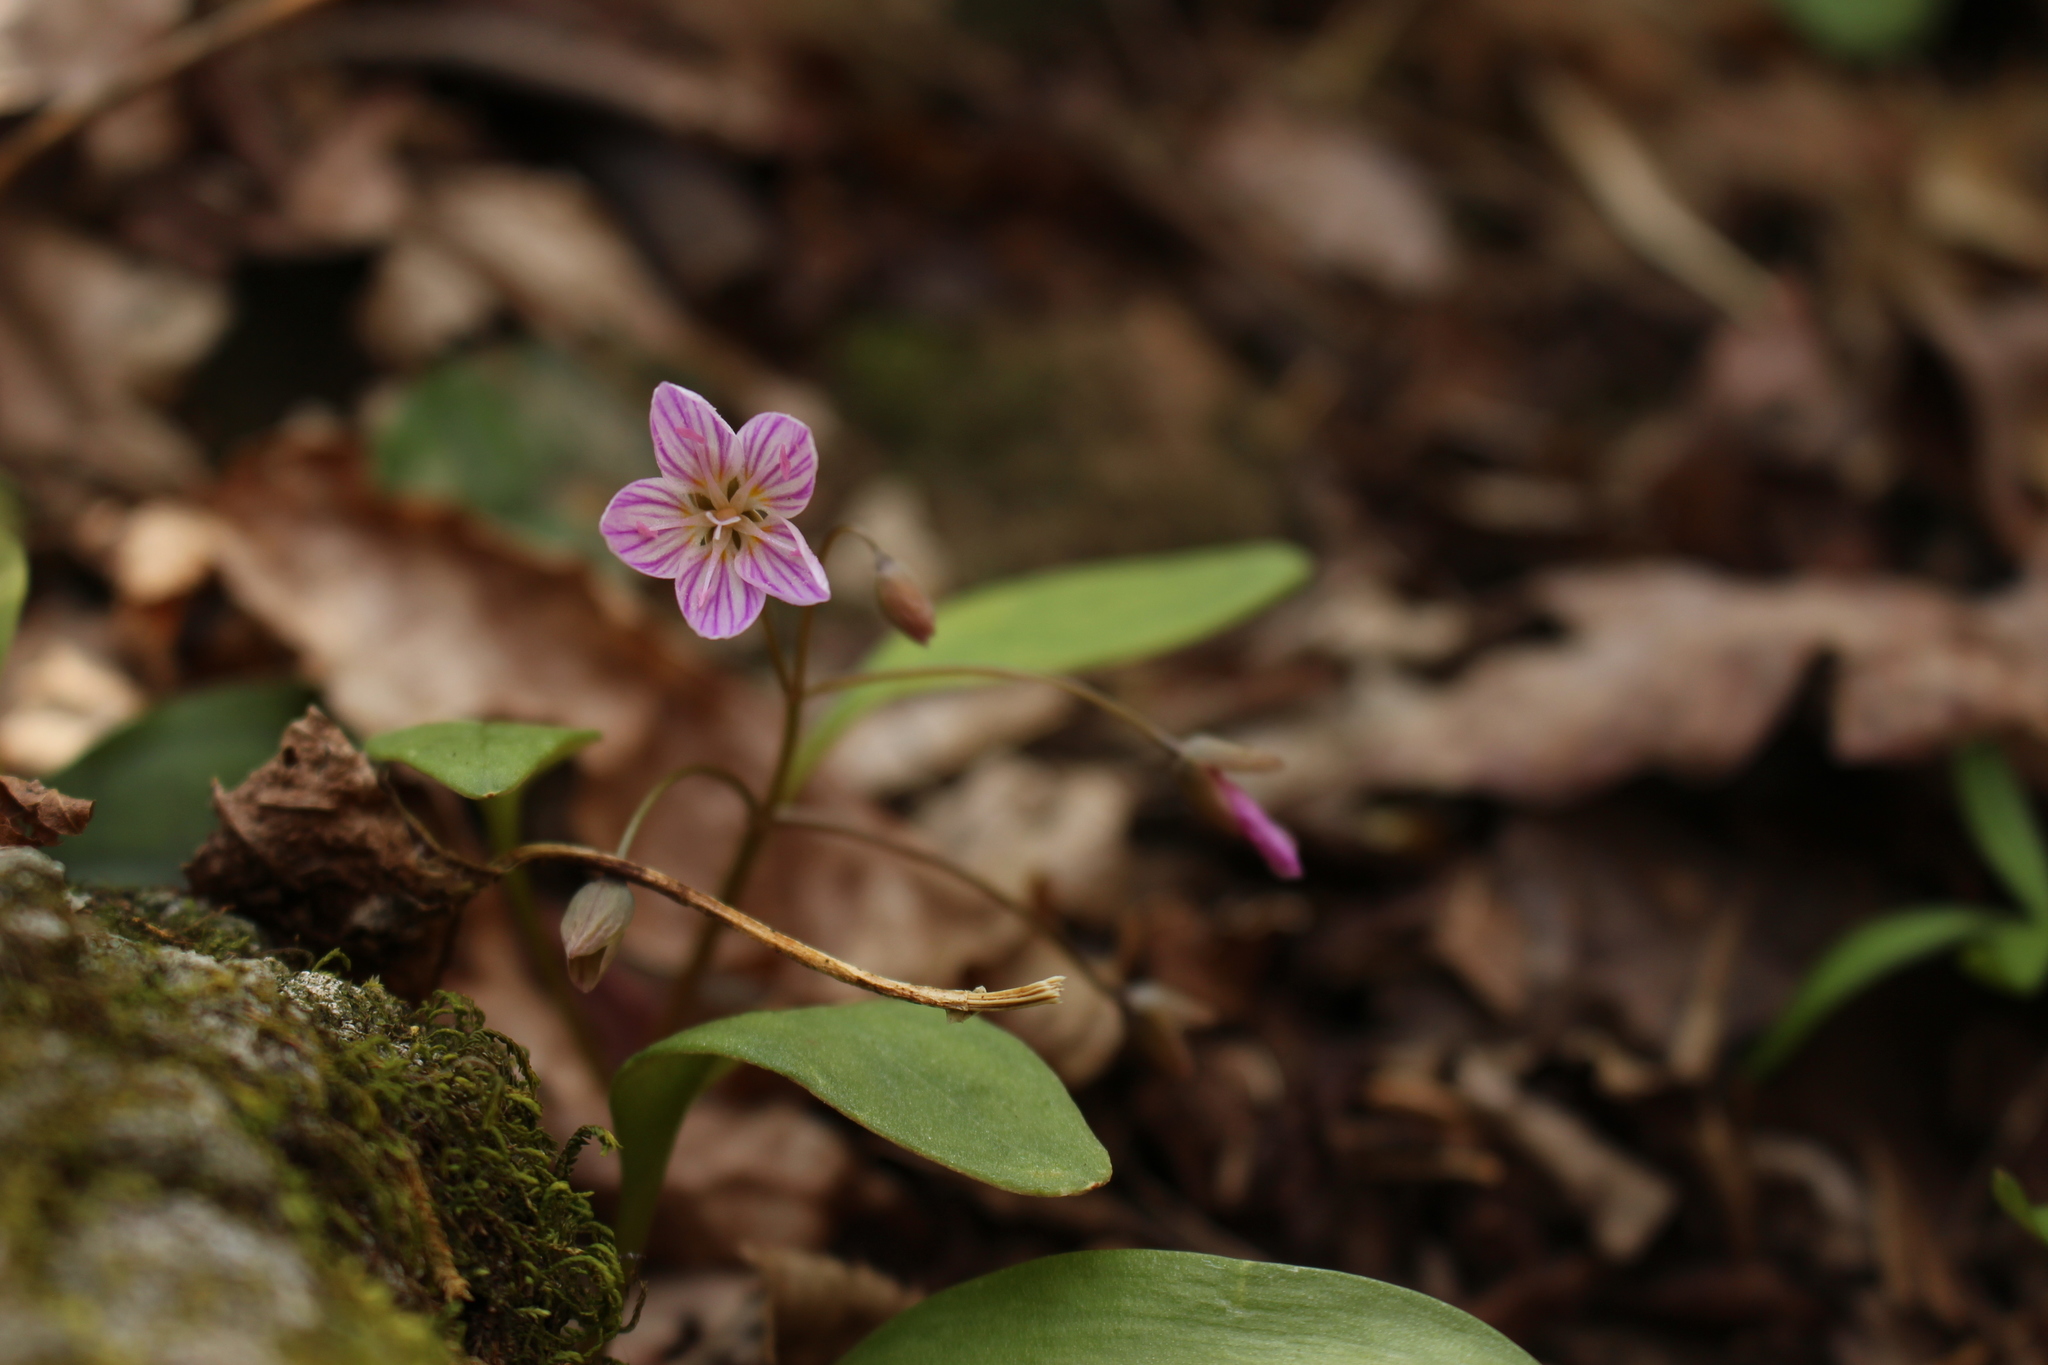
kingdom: Plantae
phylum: Tracheophyta
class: Magnoliopsida
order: Caryophyllales
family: Montiaceae
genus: Claytonia
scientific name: Claytonia caroliniana
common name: Carolina spring beauty
